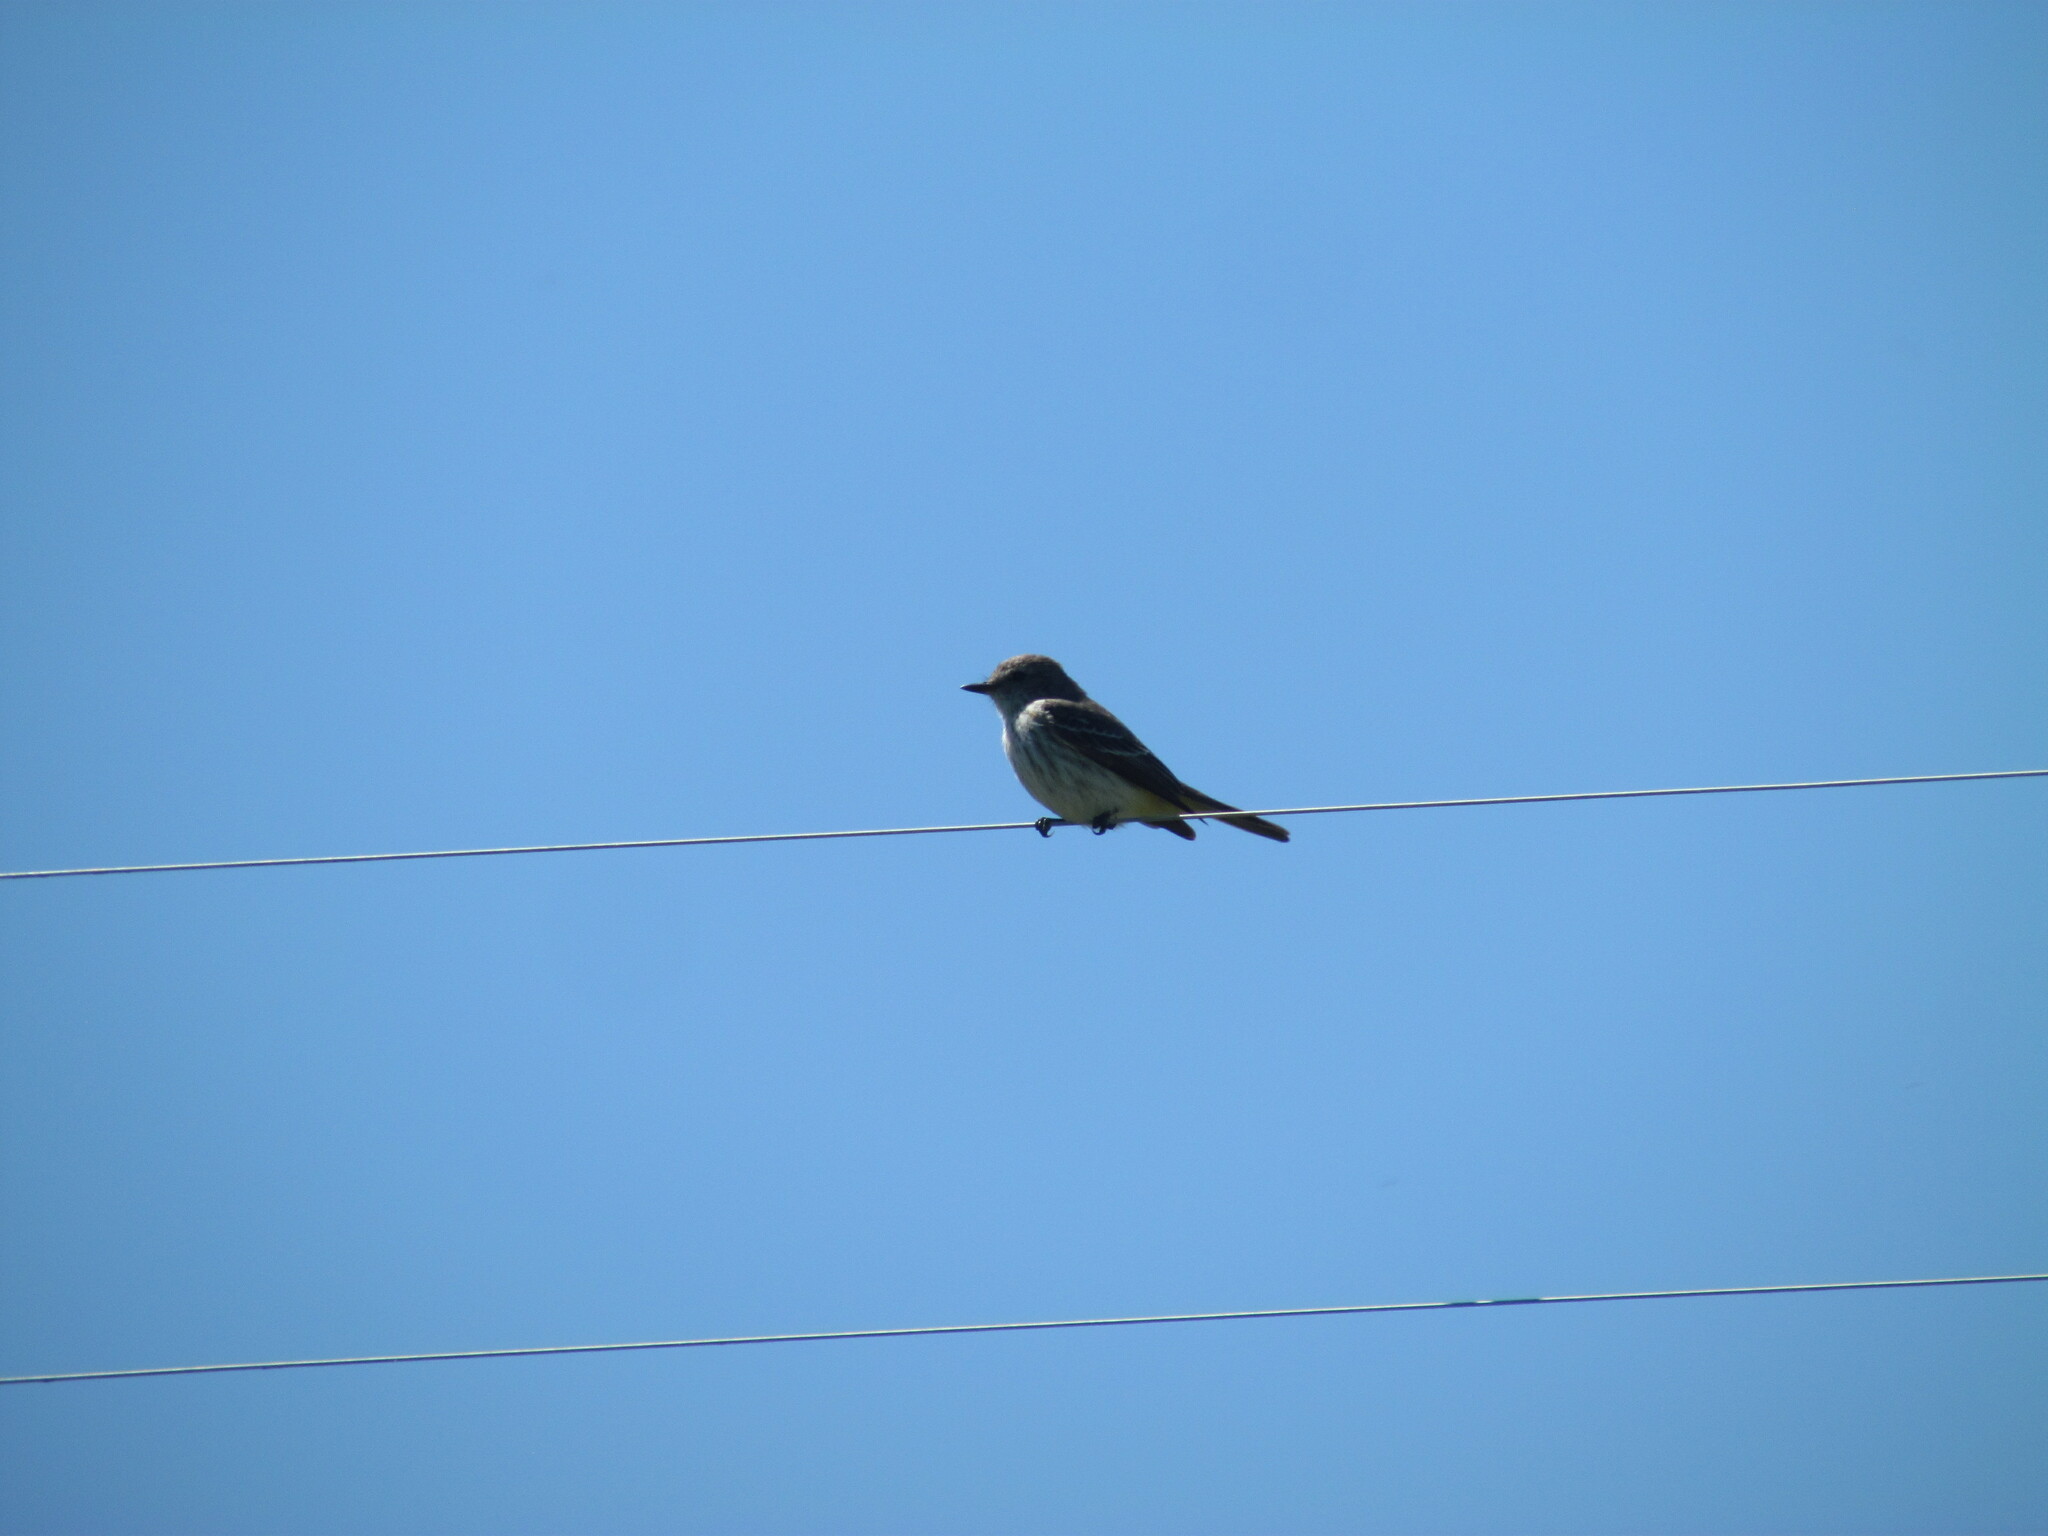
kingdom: Animalia
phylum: Chordata
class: Aves
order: Passeriformes
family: Tyrannidae
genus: Pyrocephalus
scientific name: Pyrocephalus rubinus
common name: Vermilion flycatcher
